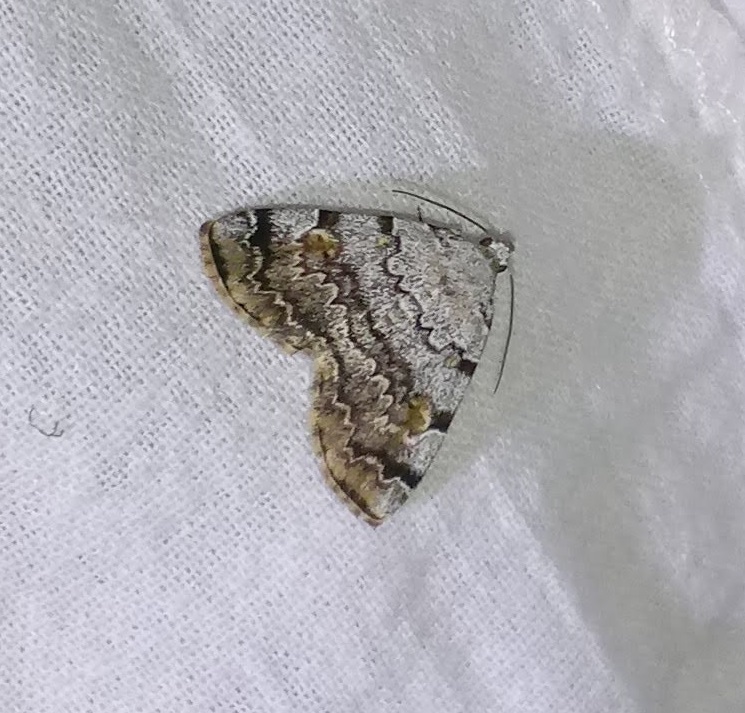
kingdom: Animalia
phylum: Arthropoda
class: Insecta
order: Lepidoptera
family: Erebidae
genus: Idia
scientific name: Idia americalis
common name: American idia moth
